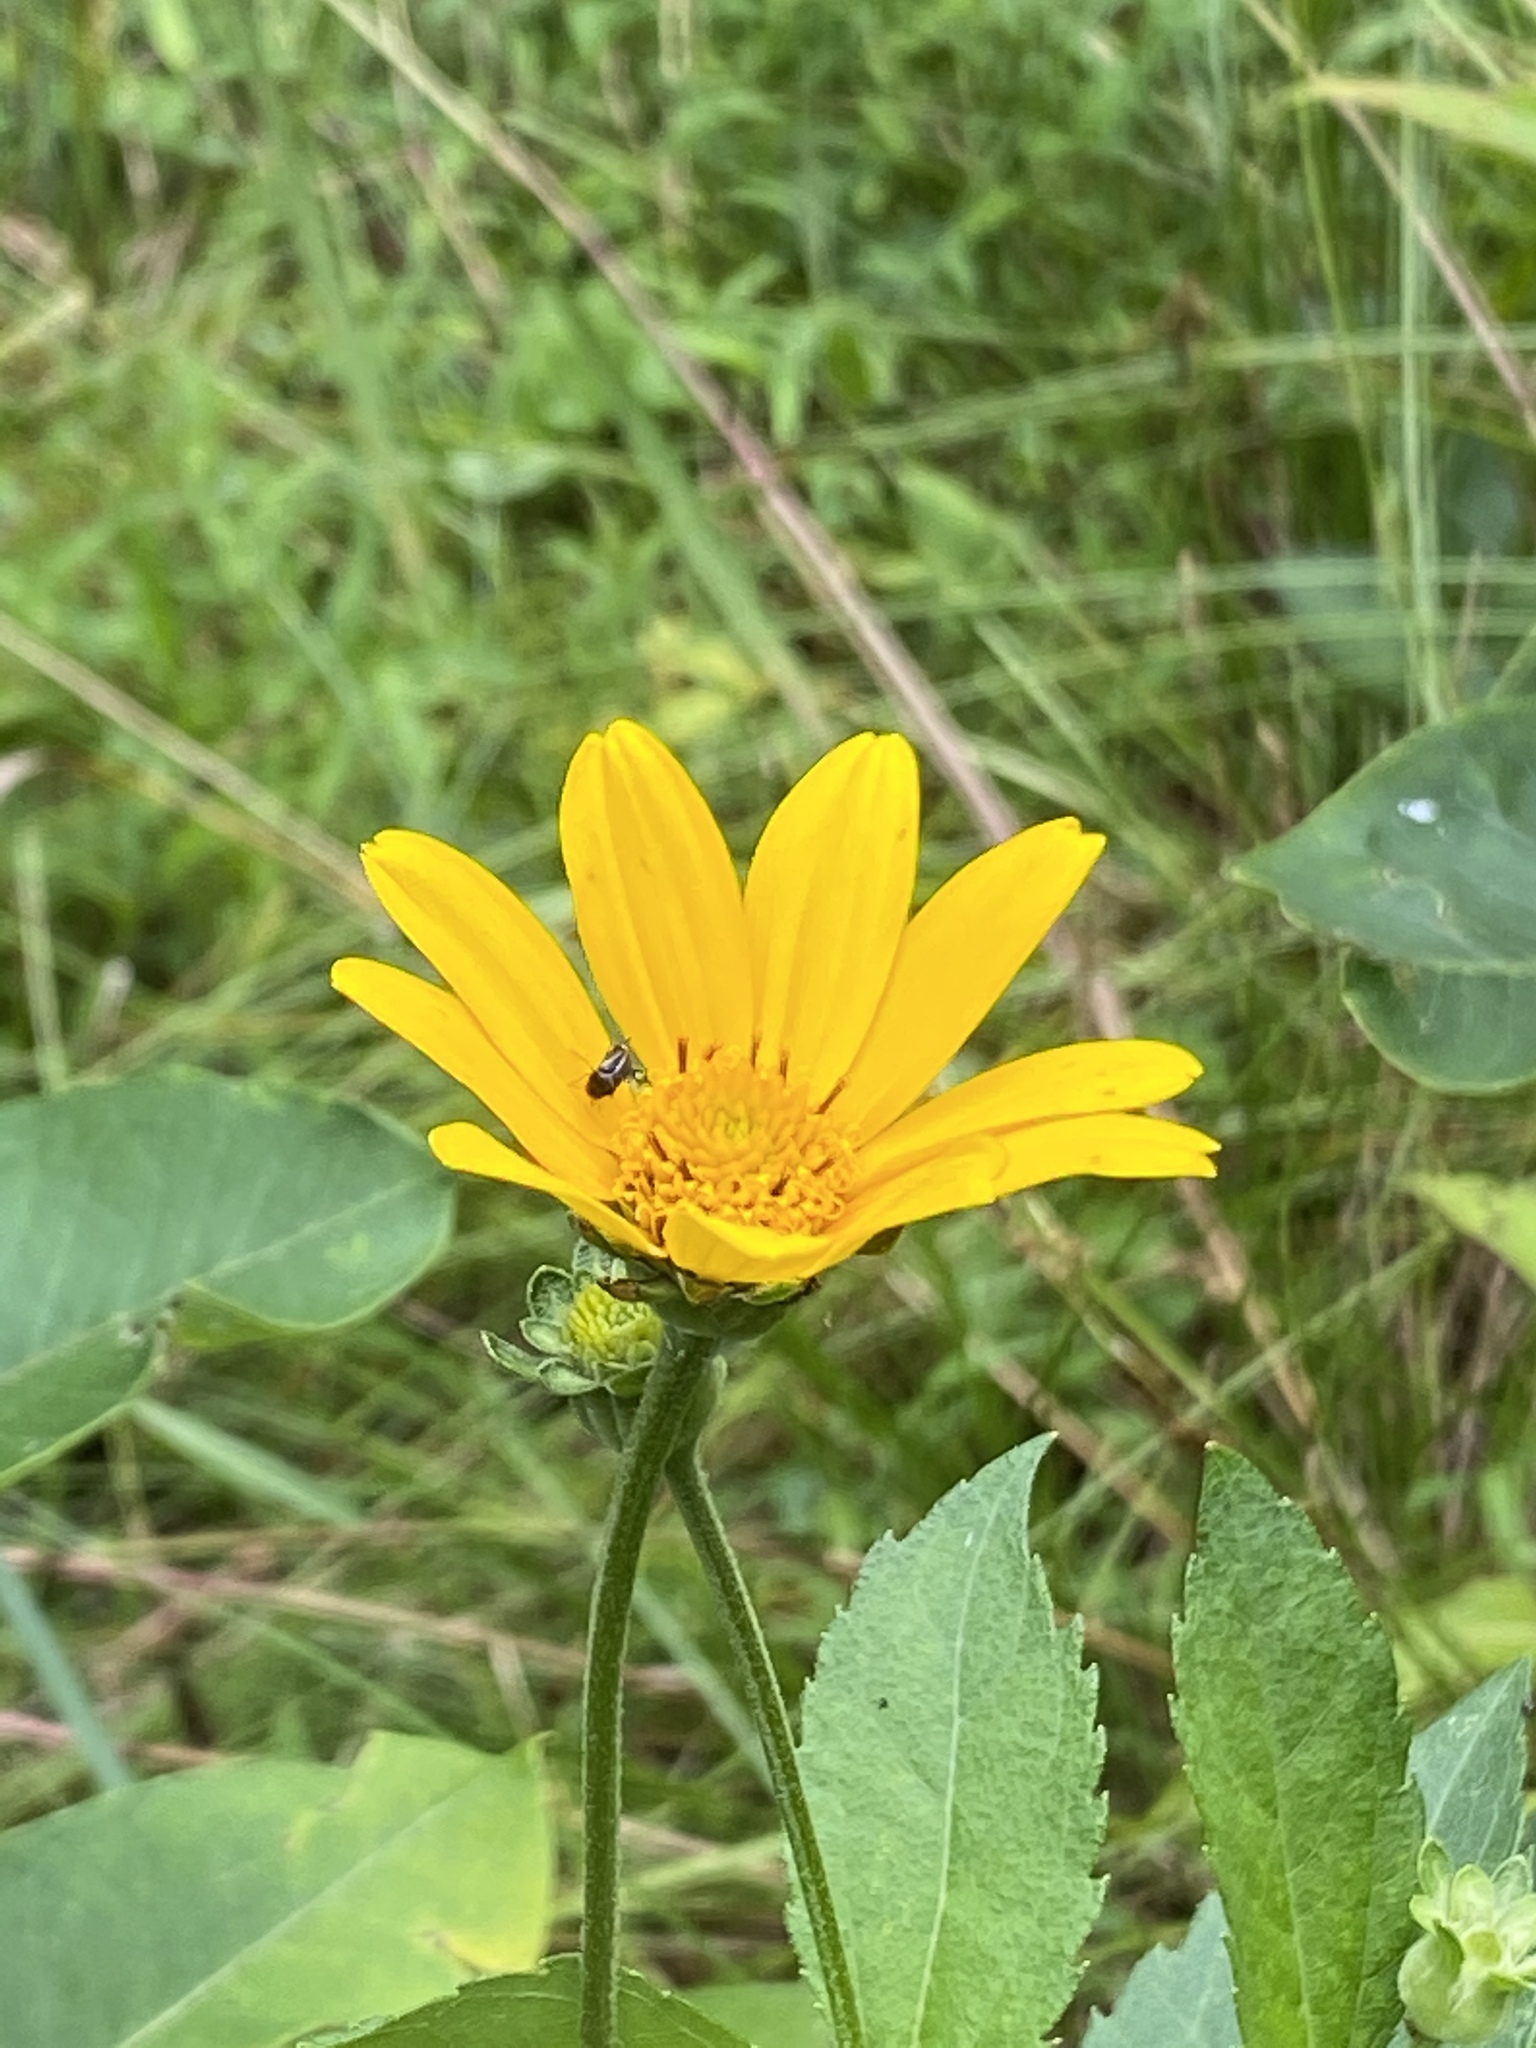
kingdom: Plantae
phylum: Tracheophyta
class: Magnoliopsida
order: Asterales
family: Asteraceae
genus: Heliopsis
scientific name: Heliopsis helianthoides
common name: False sunflower
